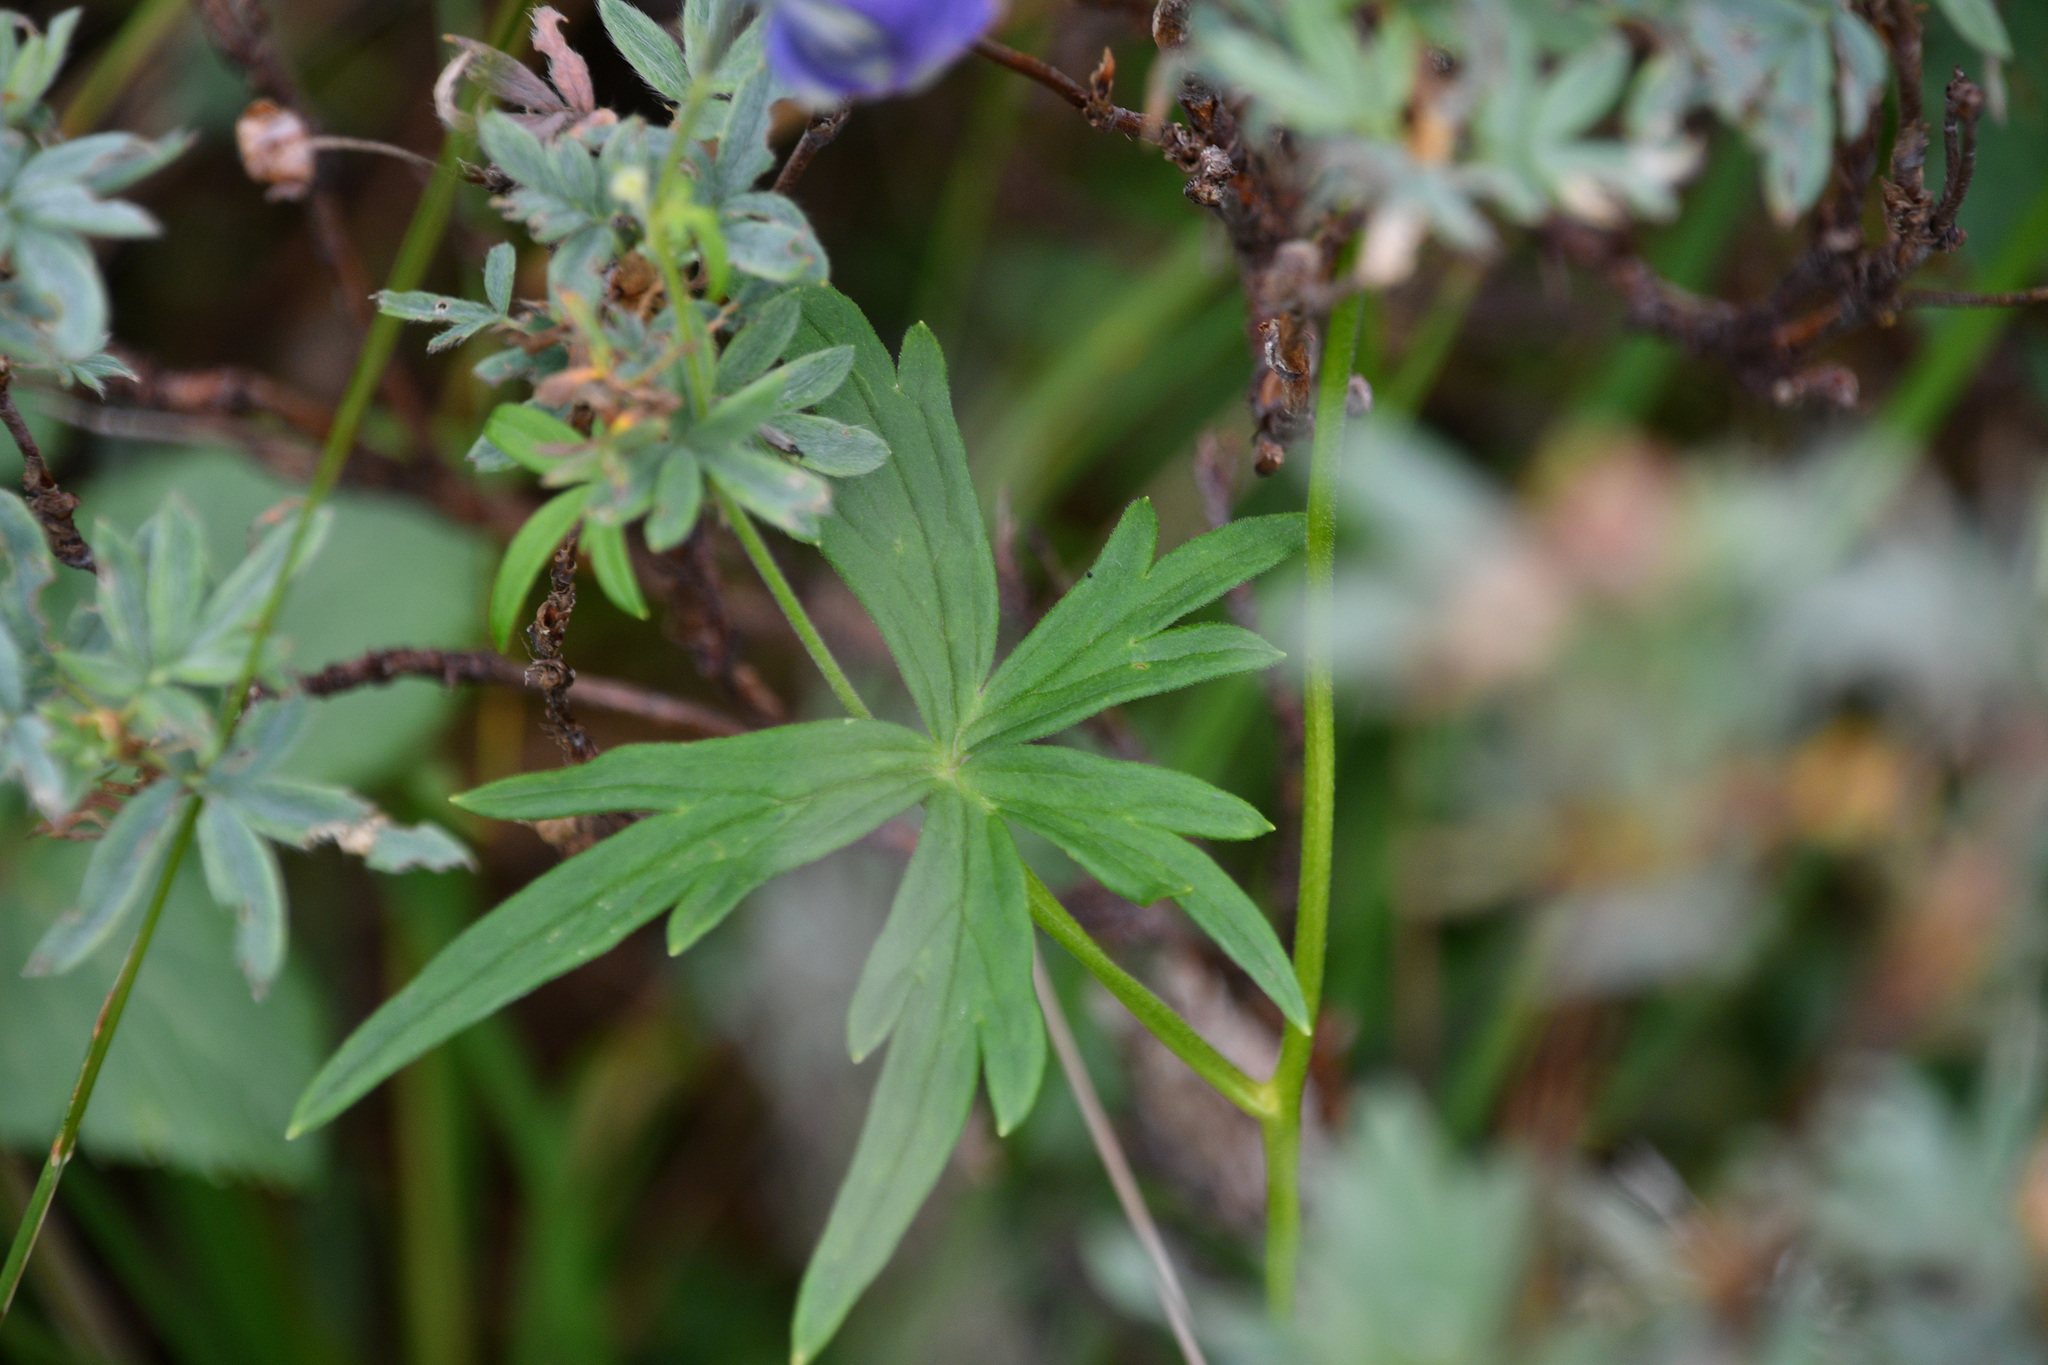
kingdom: Plantae
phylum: Tracheophyta
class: Magnoliopsida
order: Ranunculales
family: Ranunculaceae
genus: Aconitum
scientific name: Aconitum delphiniifolium
